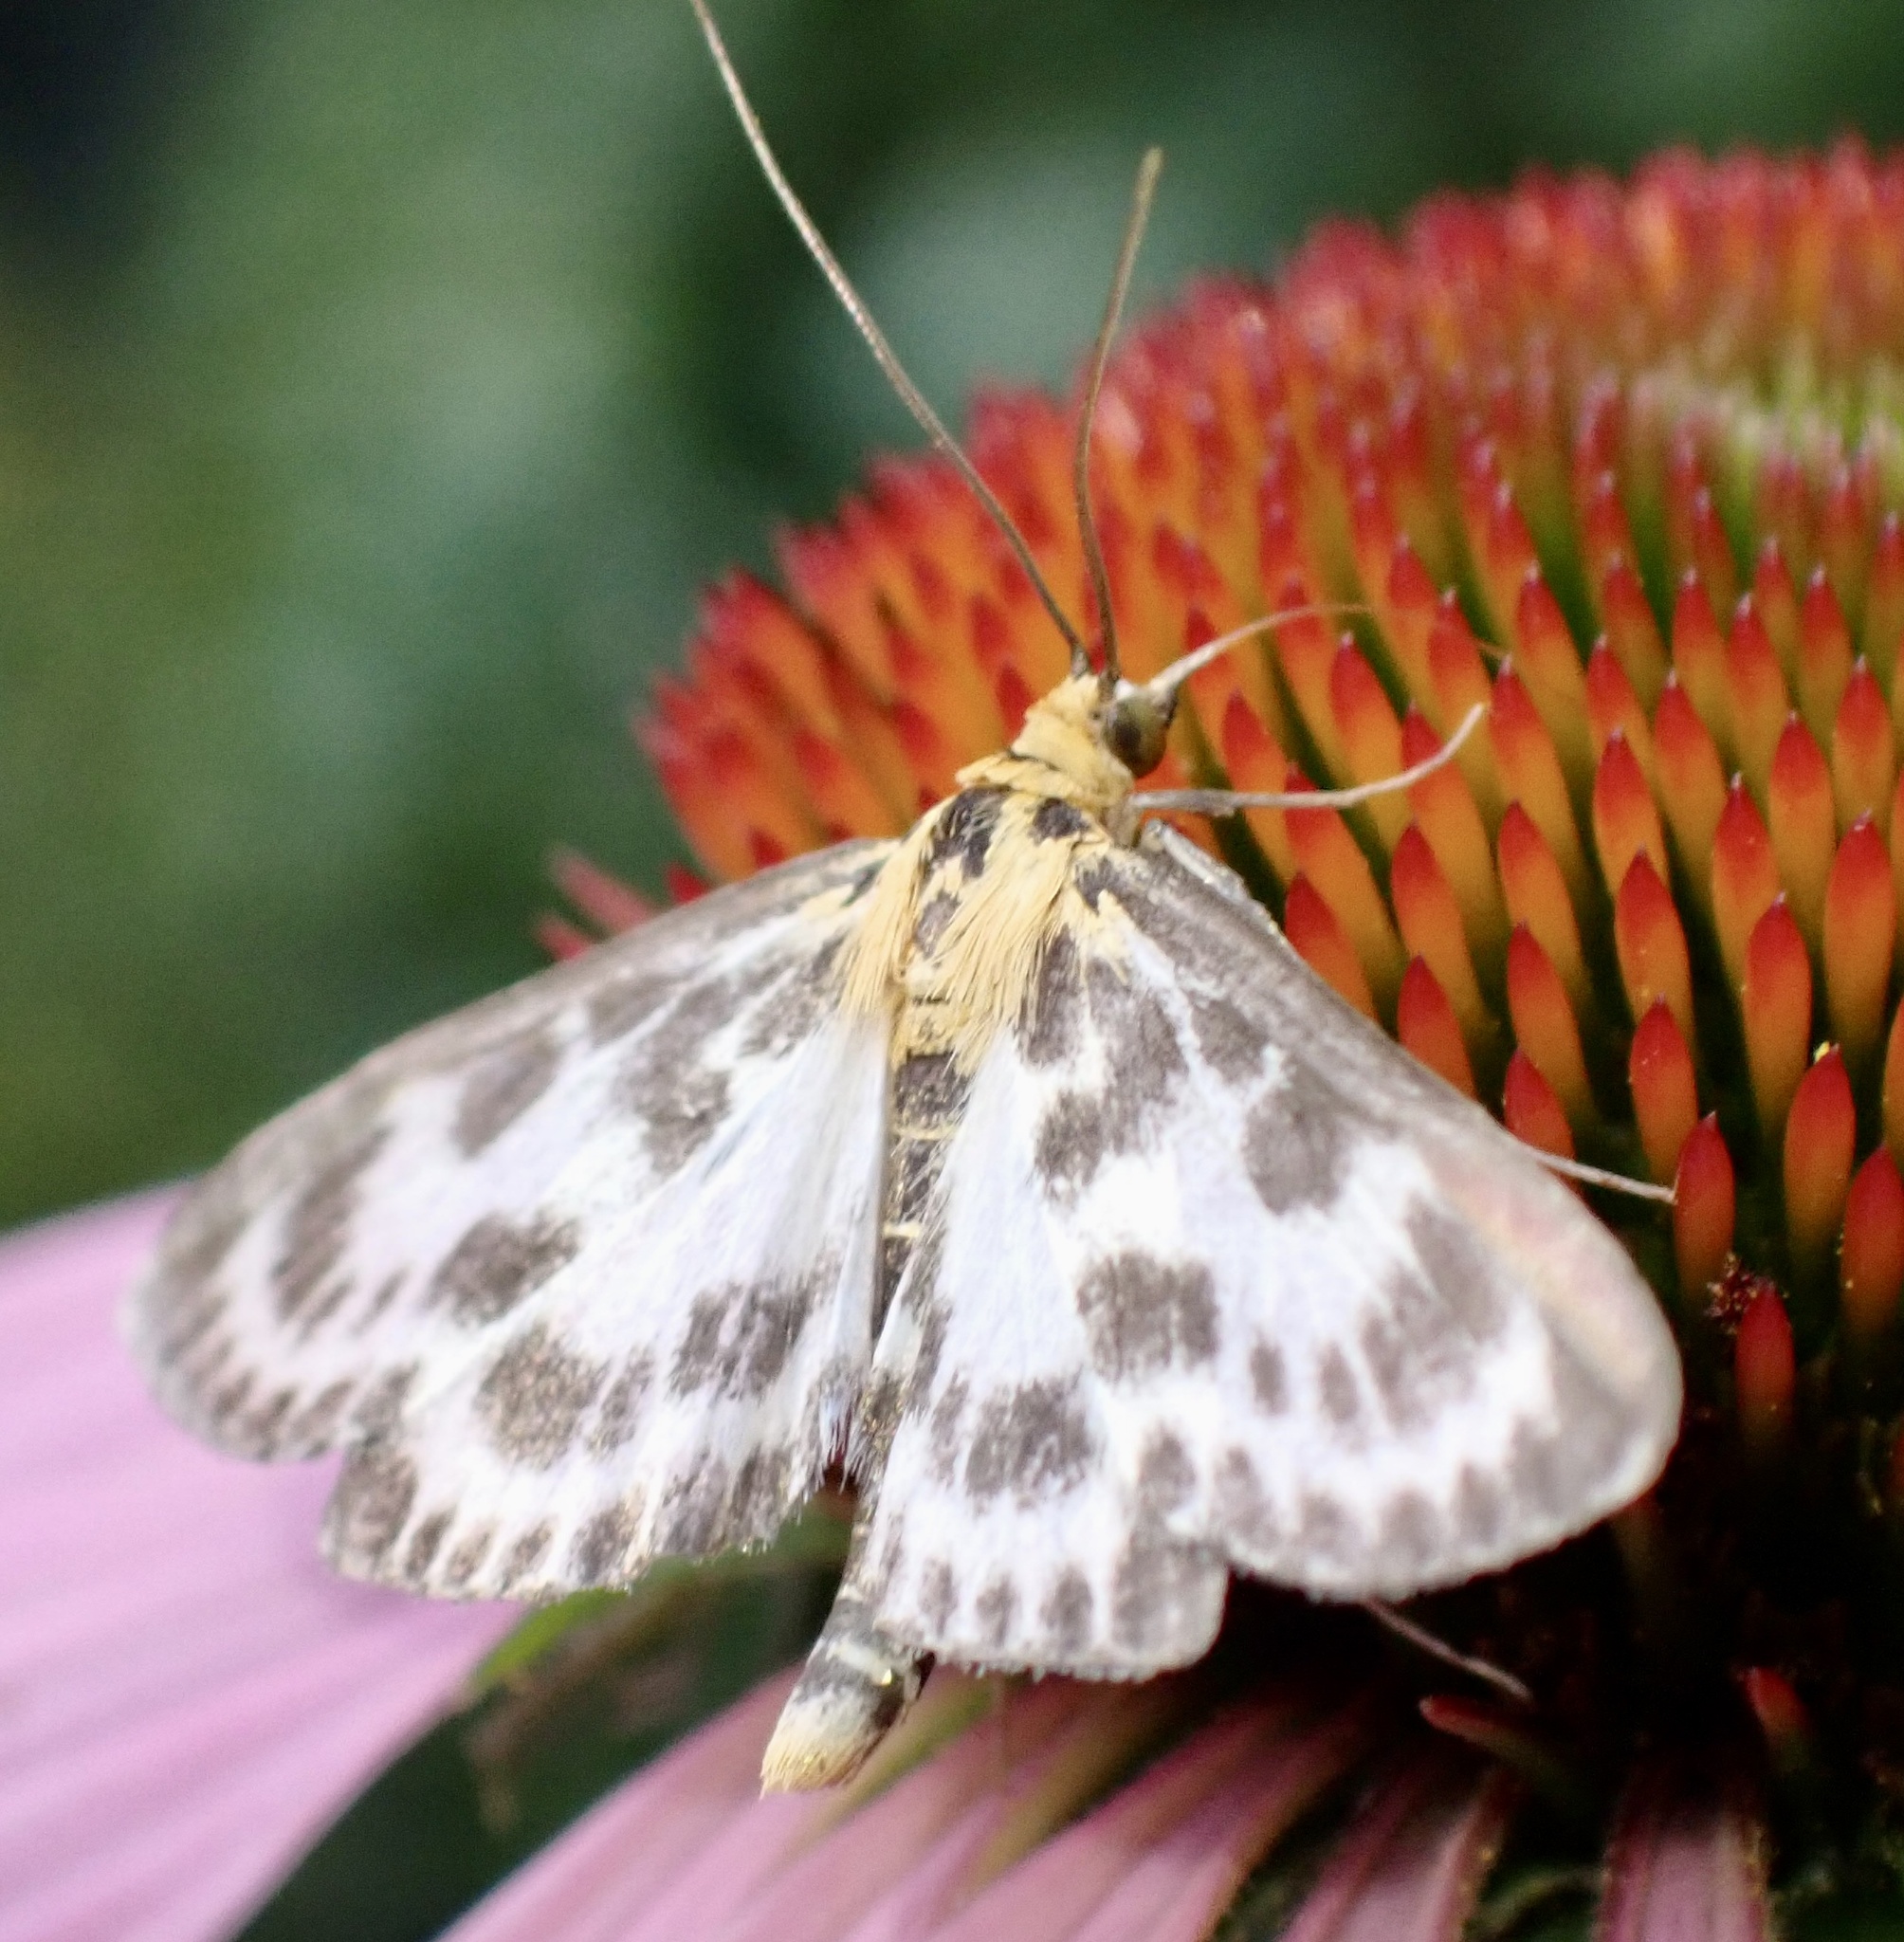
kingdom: Animalia
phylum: Arthropoda
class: Insecta
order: Lepidoptera
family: Crambidae
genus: Anania
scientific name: Anania hortulata
